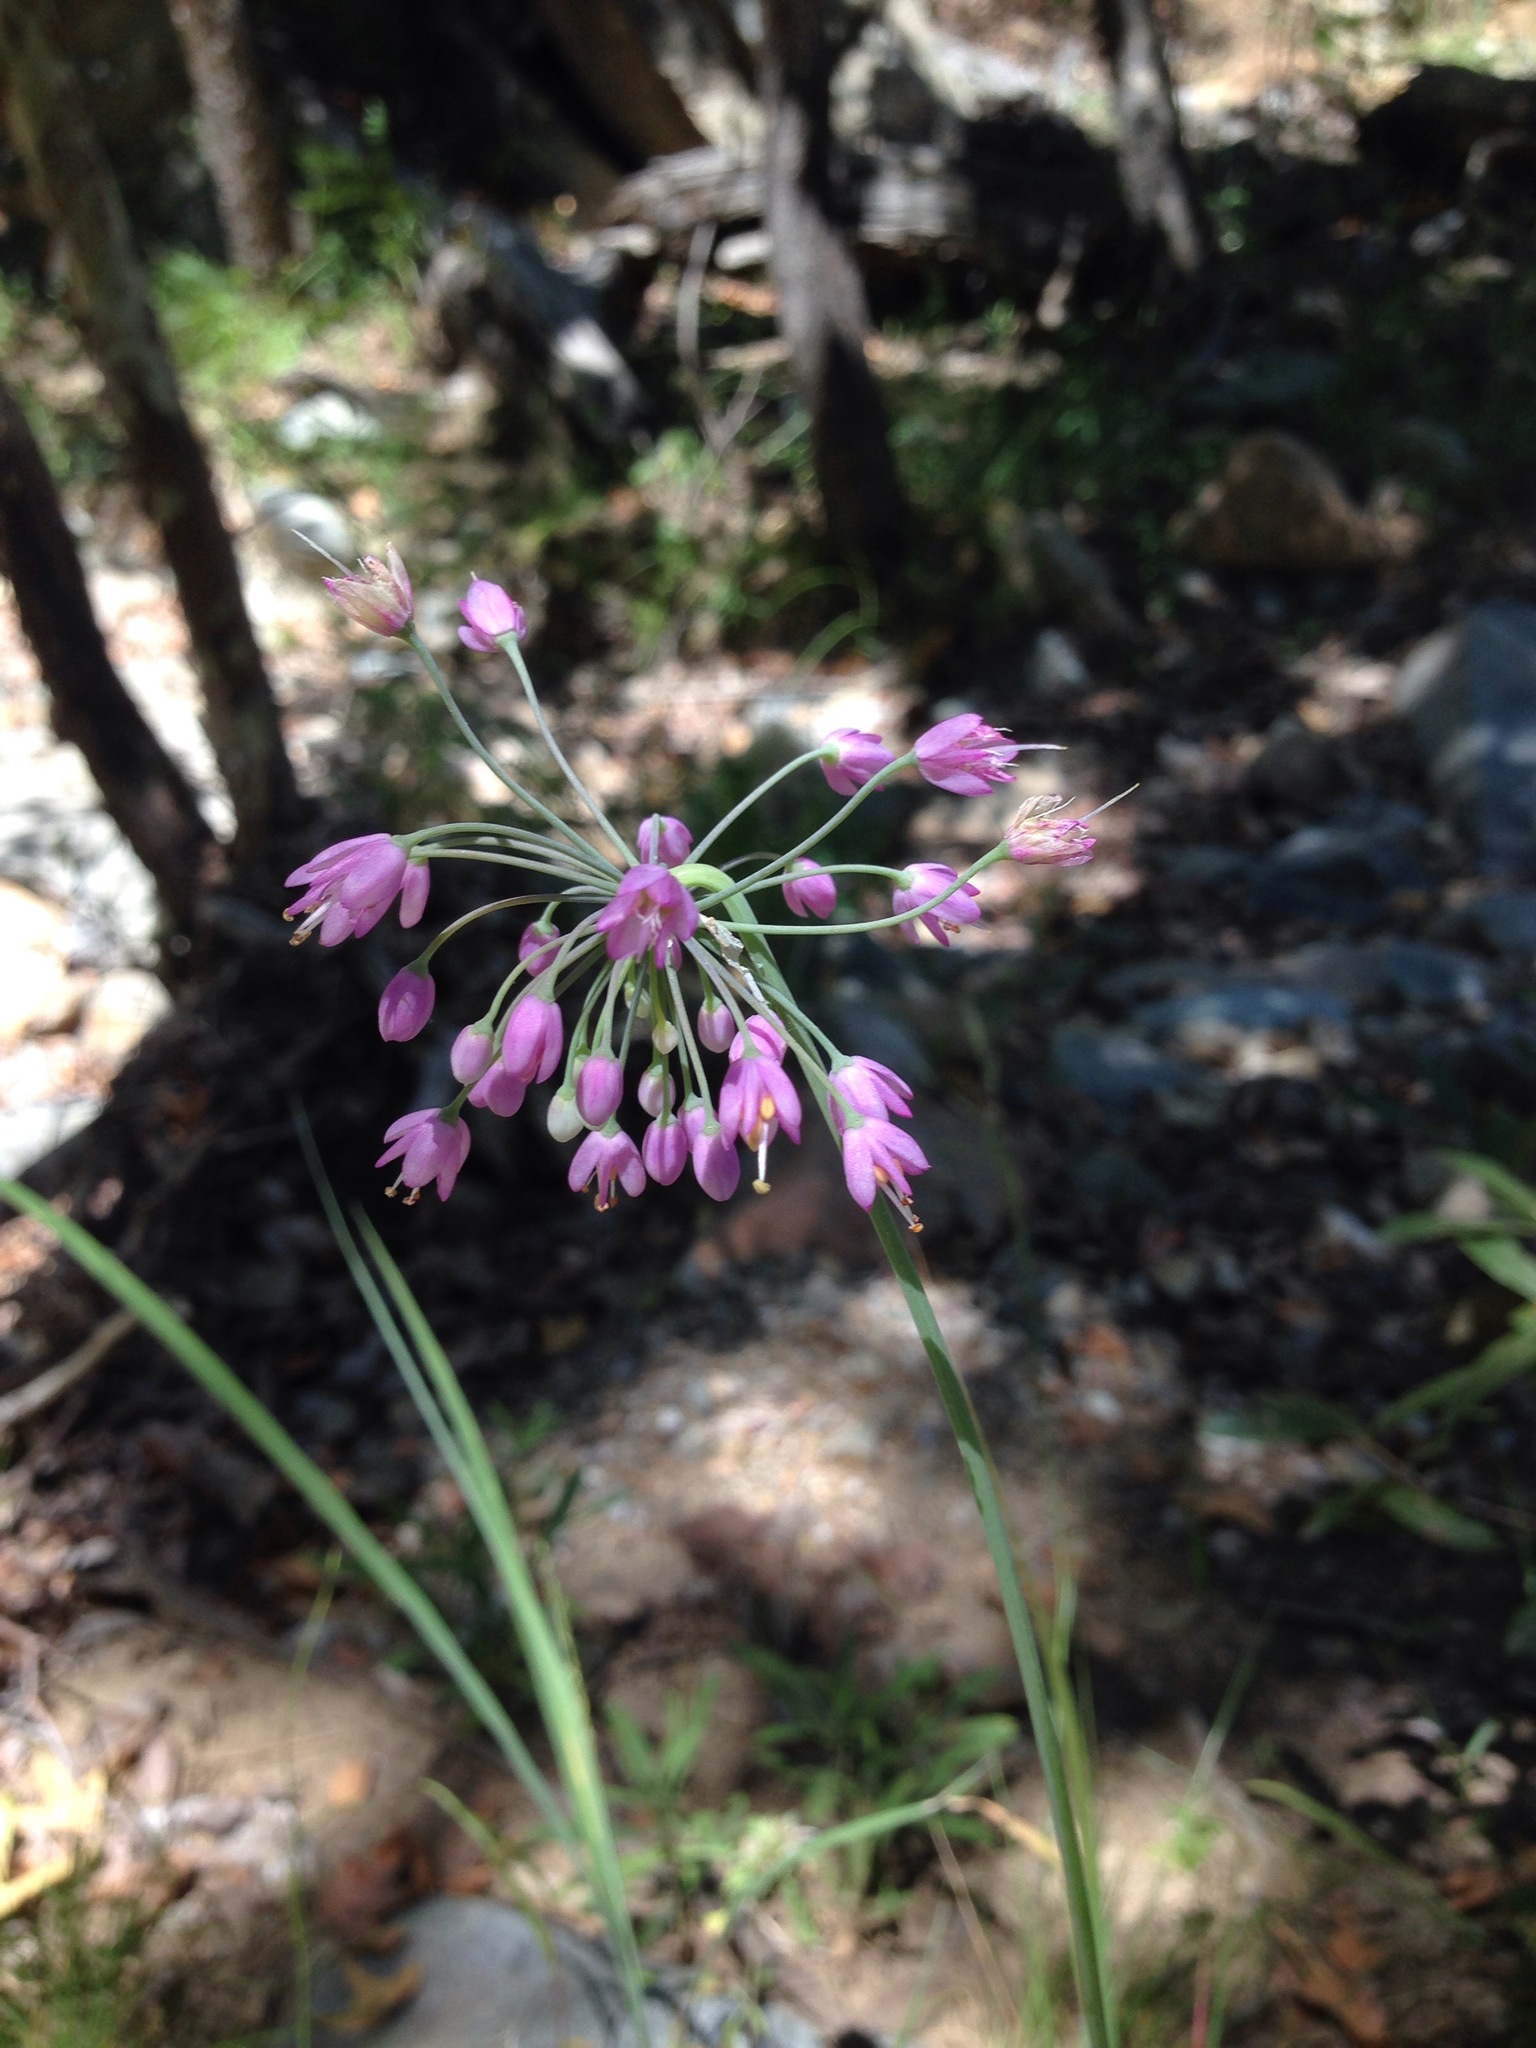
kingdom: Plantae
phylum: Tracheophyta
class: Liliopsida
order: Asparagales
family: Amaryllidaceae
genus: Allium
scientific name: Allium cernuum
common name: Nodding onion
